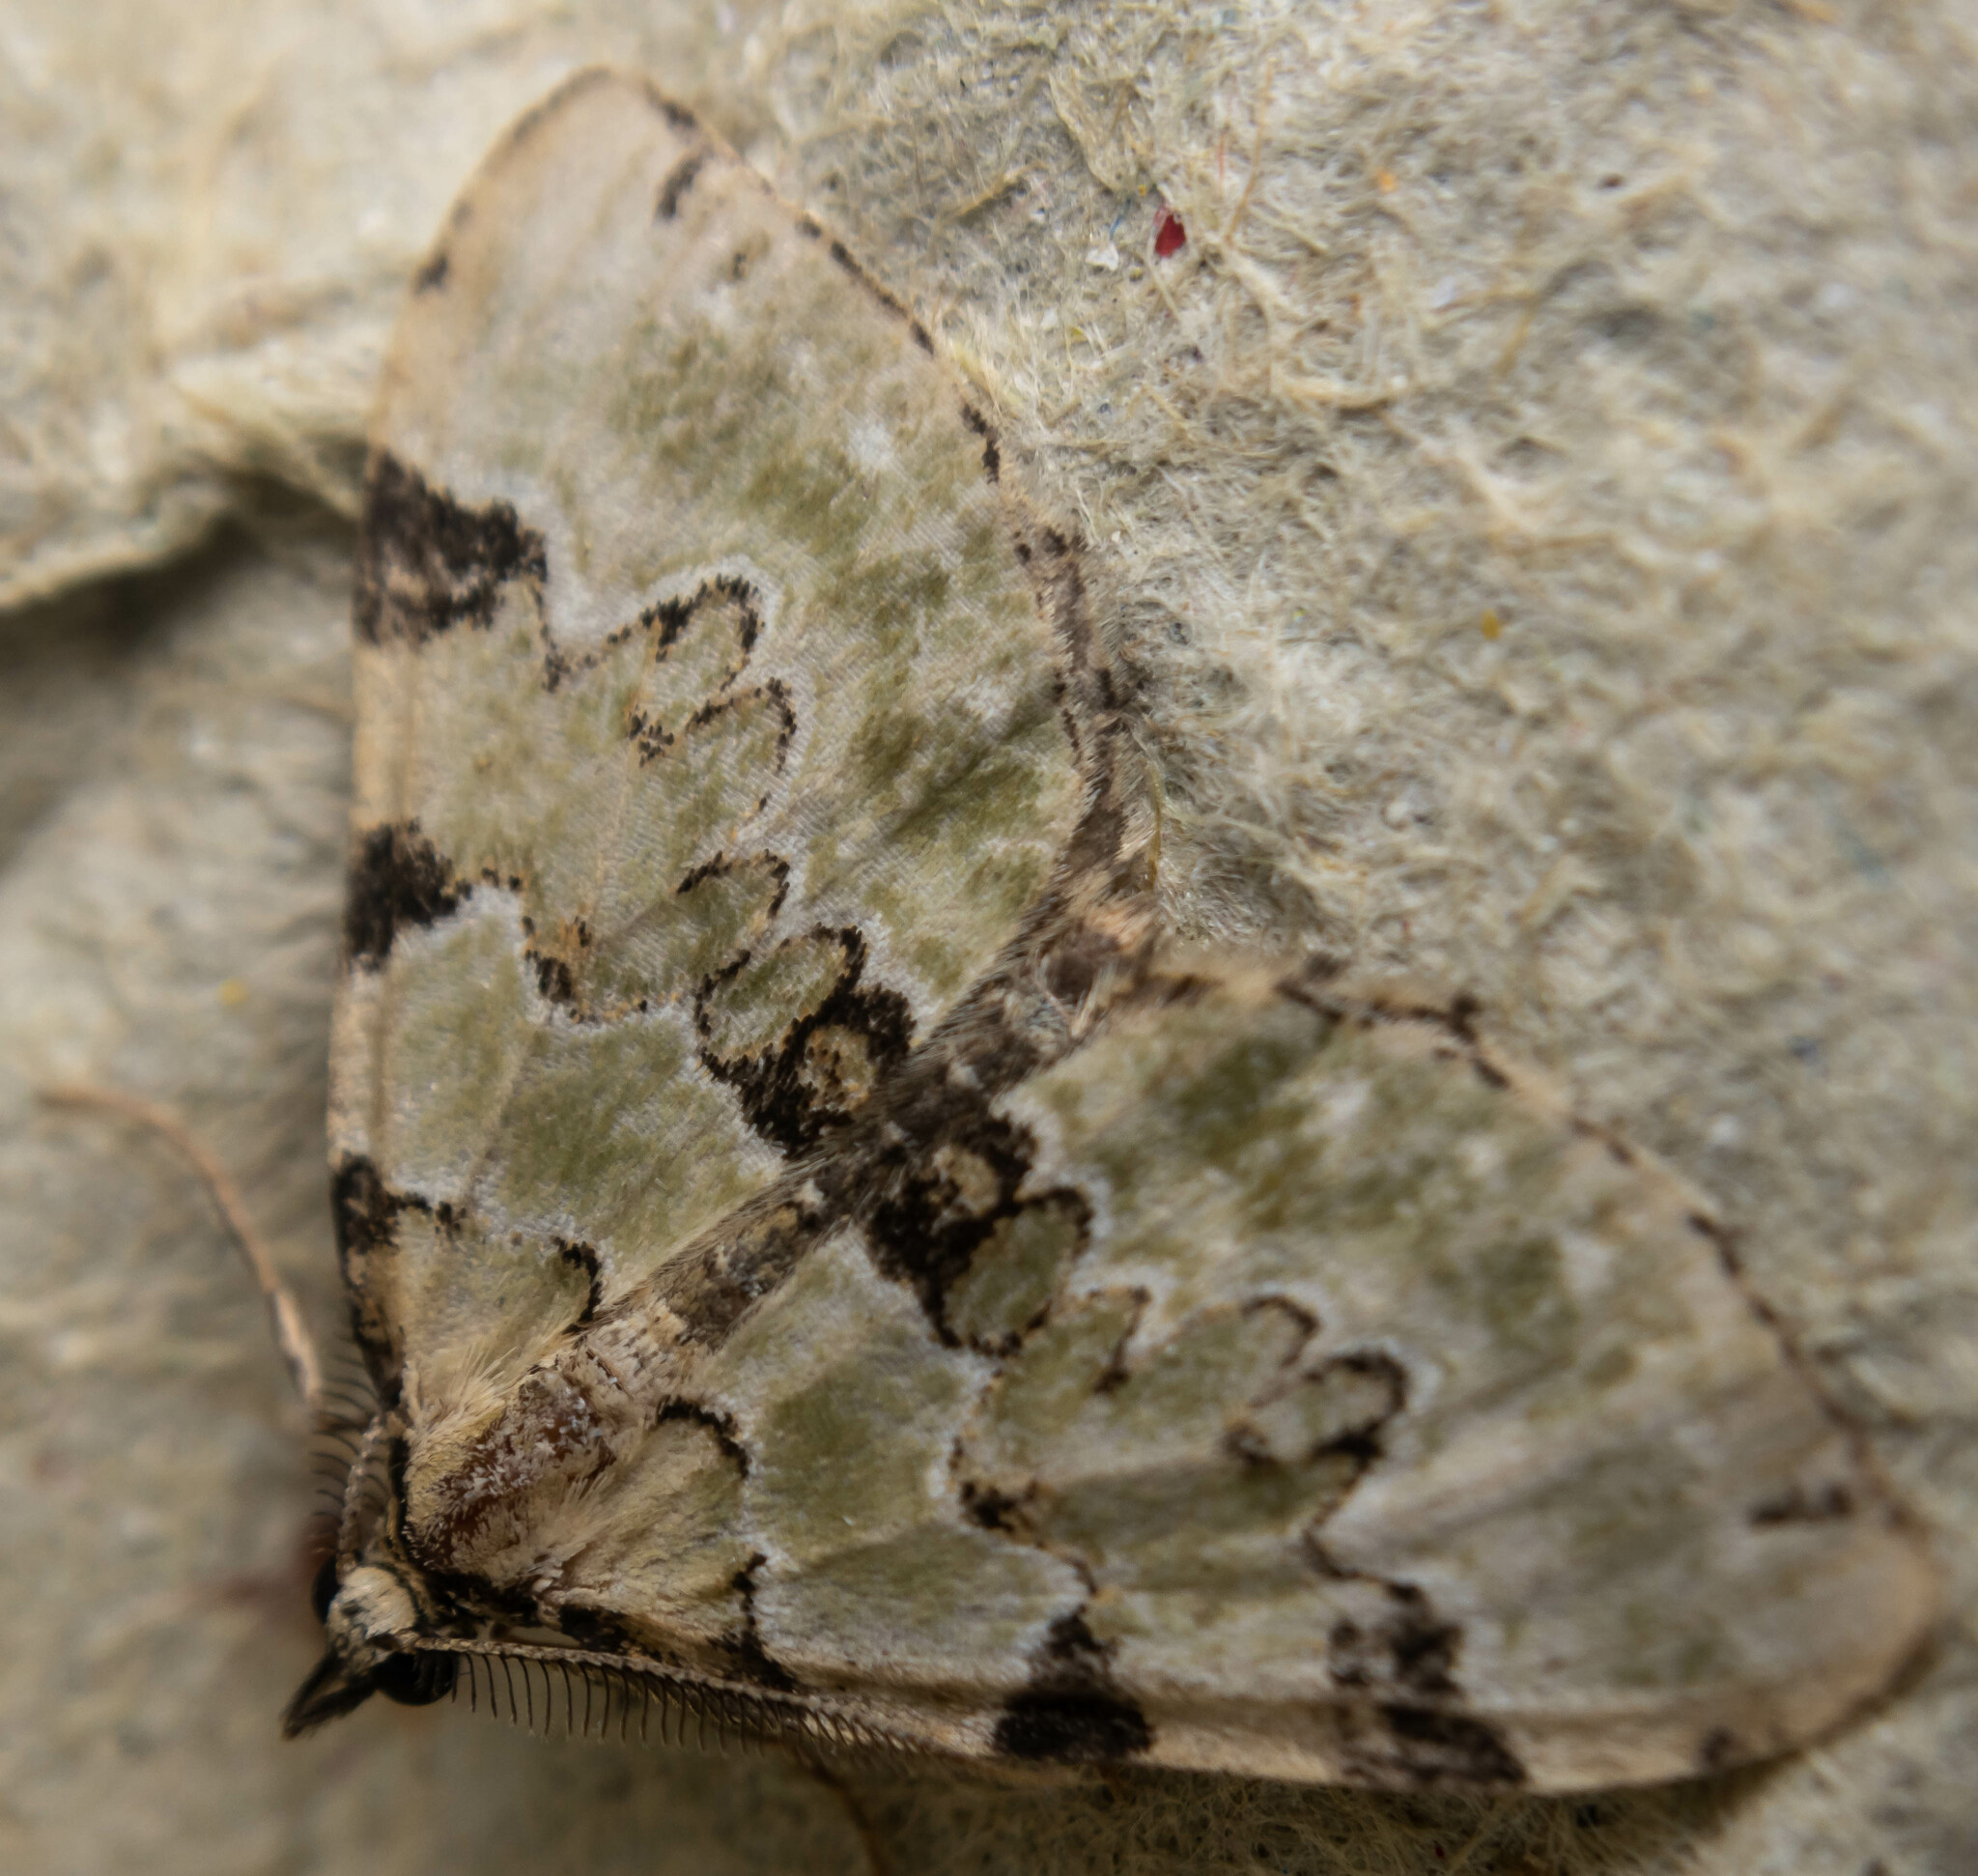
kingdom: Animalia
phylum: Arthropoda
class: Insecta
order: Lepidoptera
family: Geometridae
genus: Colostygia
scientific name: Colostygia pectinataria
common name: Green carpet
